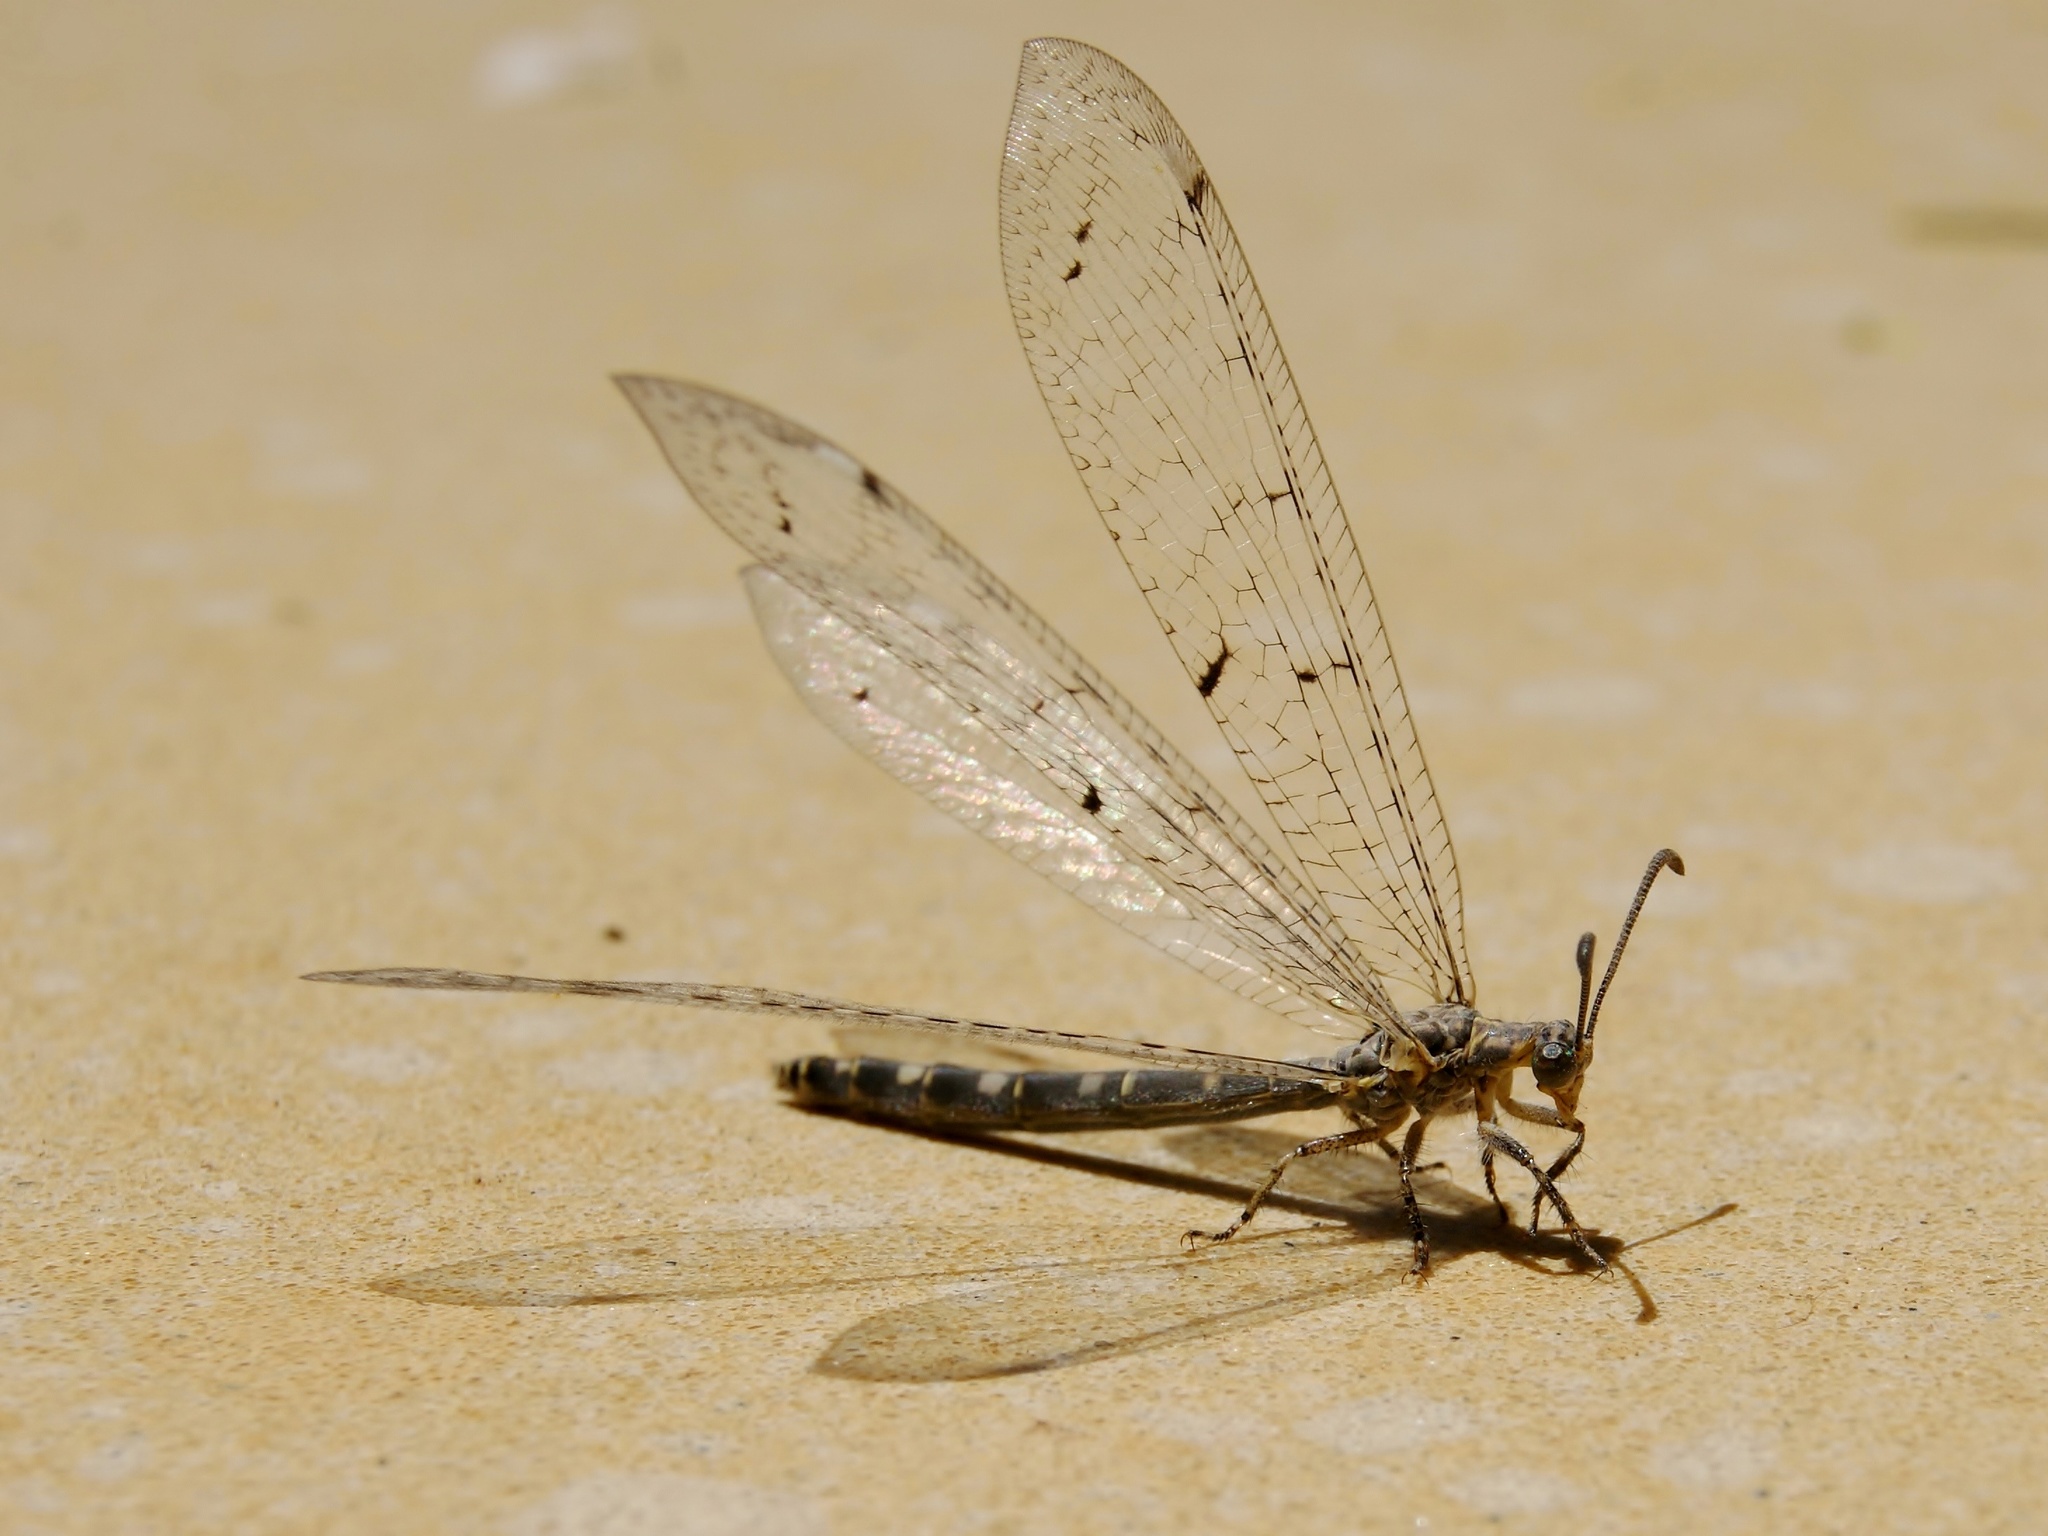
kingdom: Animalia
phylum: Arthropoda
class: Insecta
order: Neuroptera
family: Myrmeleontidae
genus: Distoleon
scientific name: Distoleon tetragrammicus
